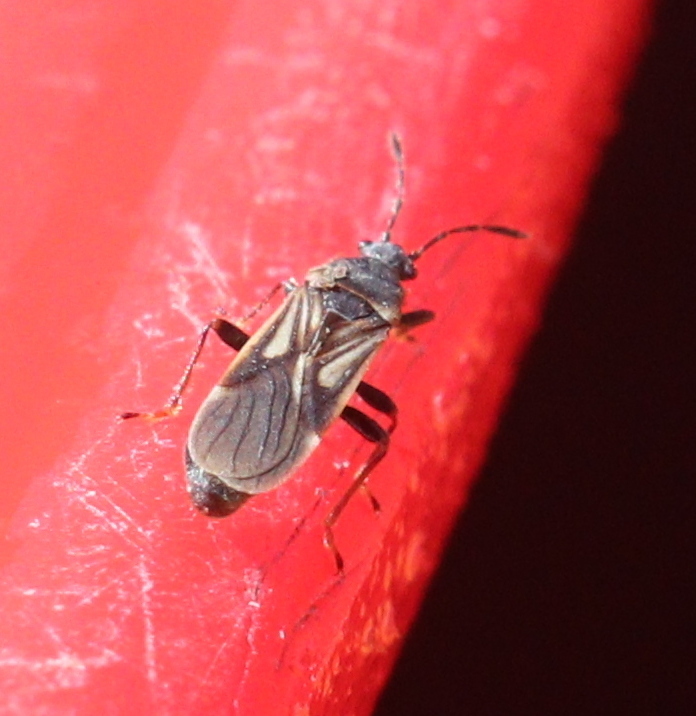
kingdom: Animalia
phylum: Arthropoda
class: Insecta
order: Hemiptera
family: Blissidae
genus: Ischnodemus
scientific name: Ischnodemus sabuleti
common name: European cinchbug
